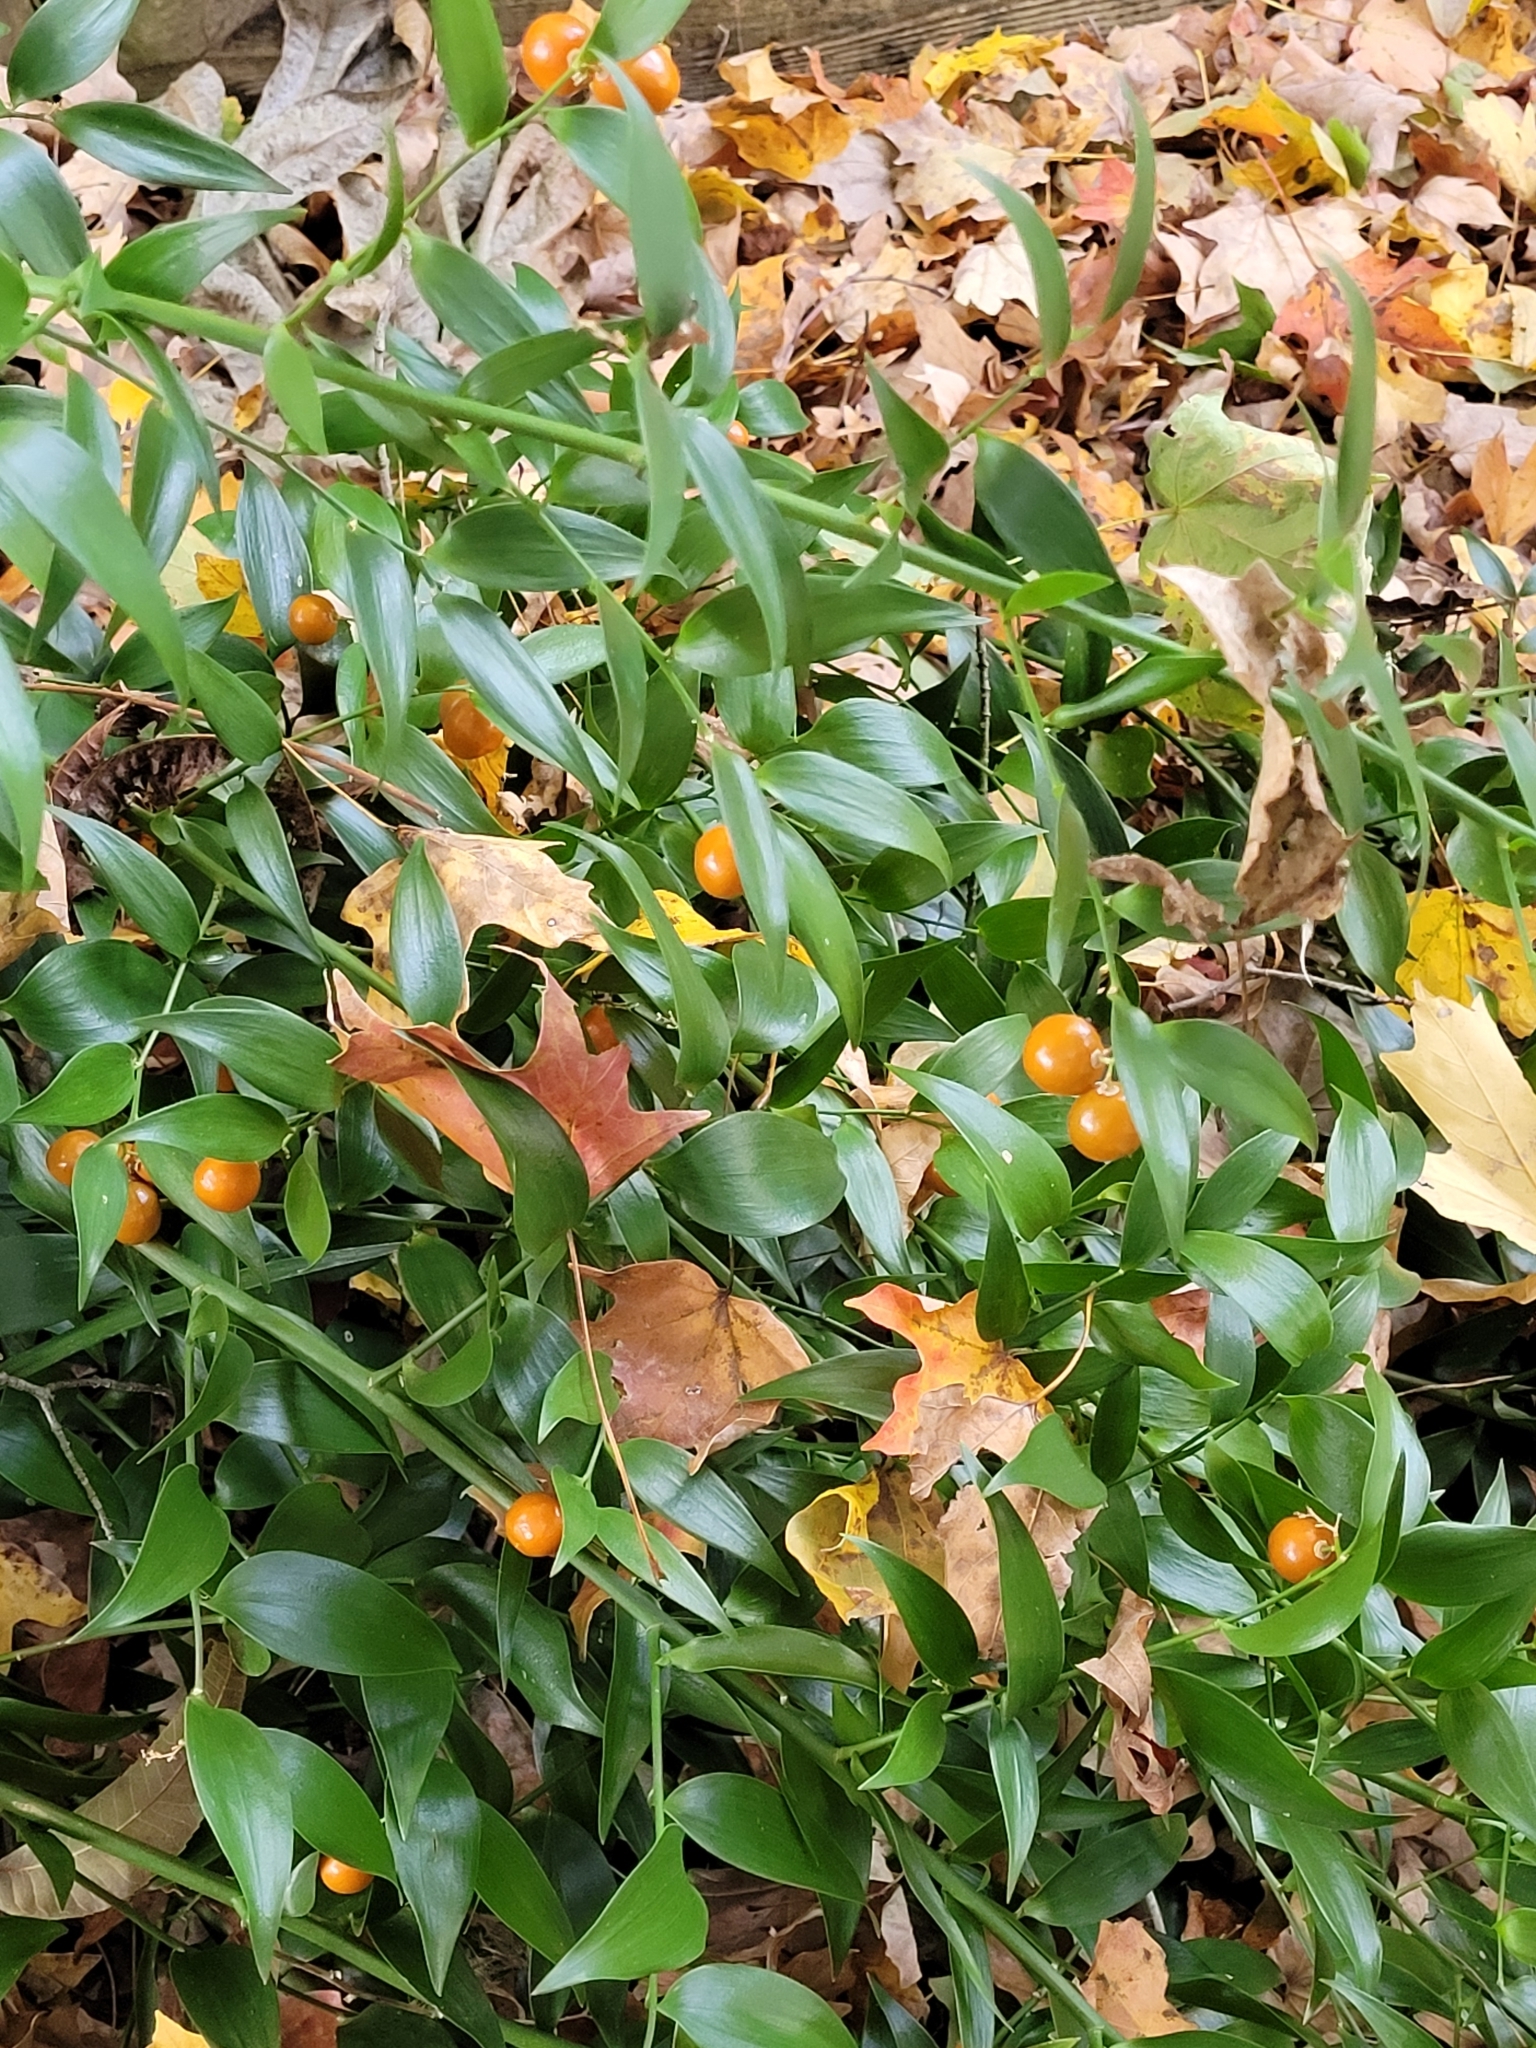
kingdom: Plantae
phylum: Tracheophyta
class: Liliopsida
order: Asparagales
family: Asparagaceae
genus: Asparagus
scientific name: Asparagus asparagoides
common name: African asparagus fern
